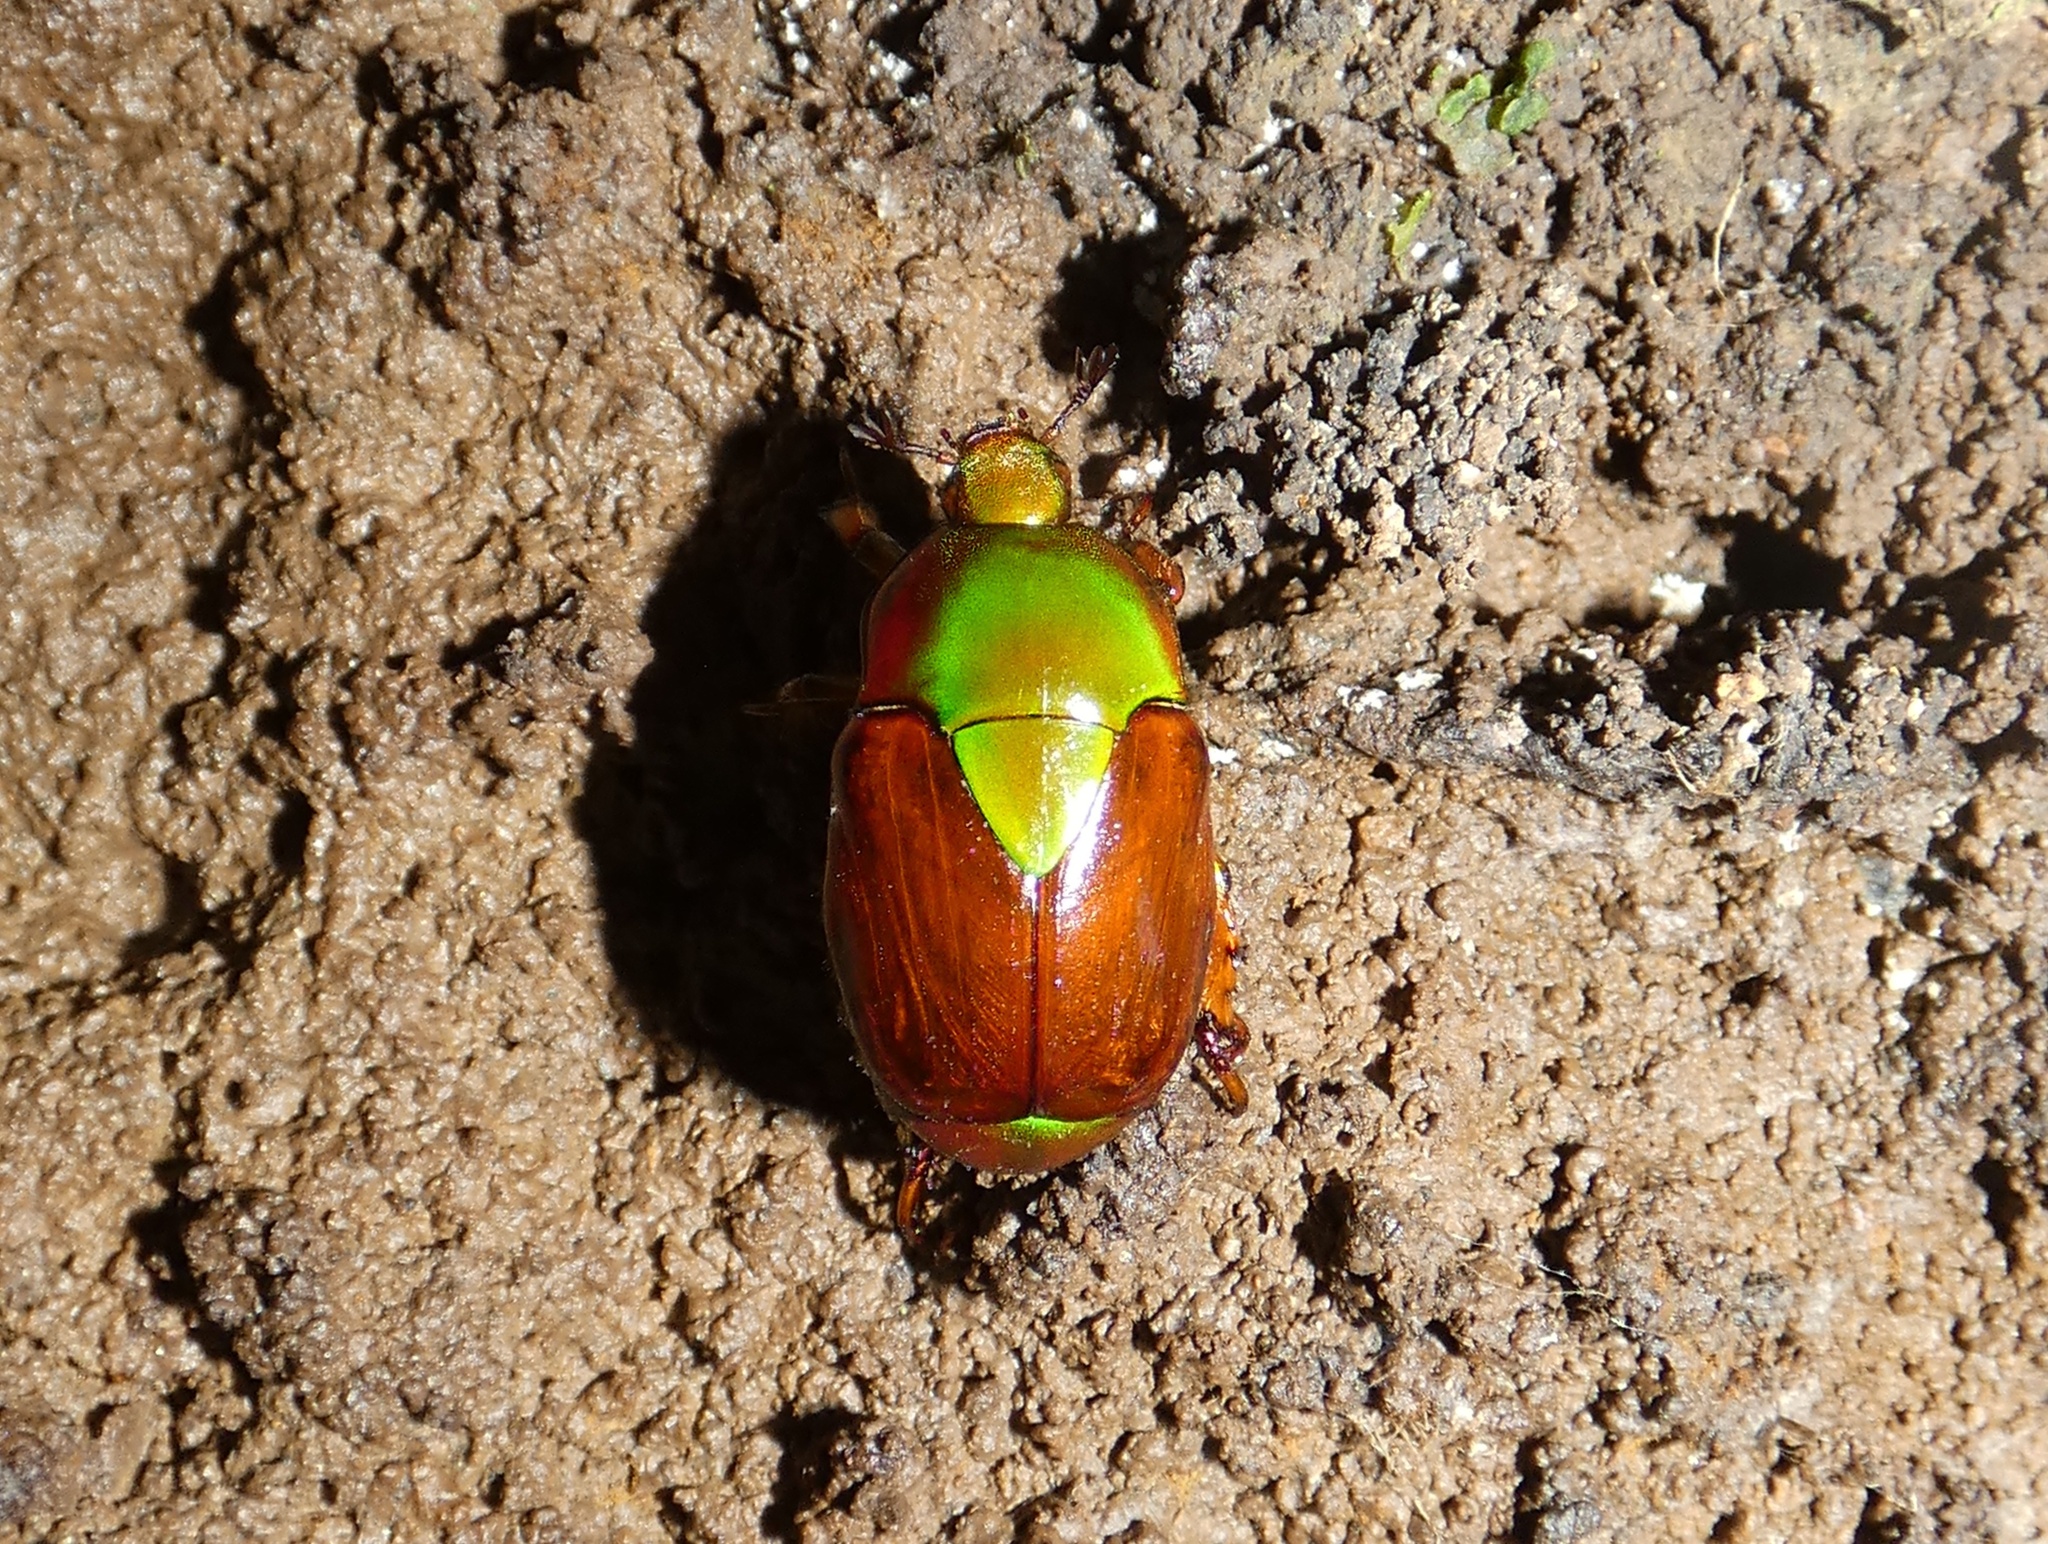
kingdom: Animalia
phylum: Arthropoda
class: Insecta
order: Coleoptera
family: Scarabaeidae
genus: Calomacraspis
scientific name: Calomacraspis haroldi
